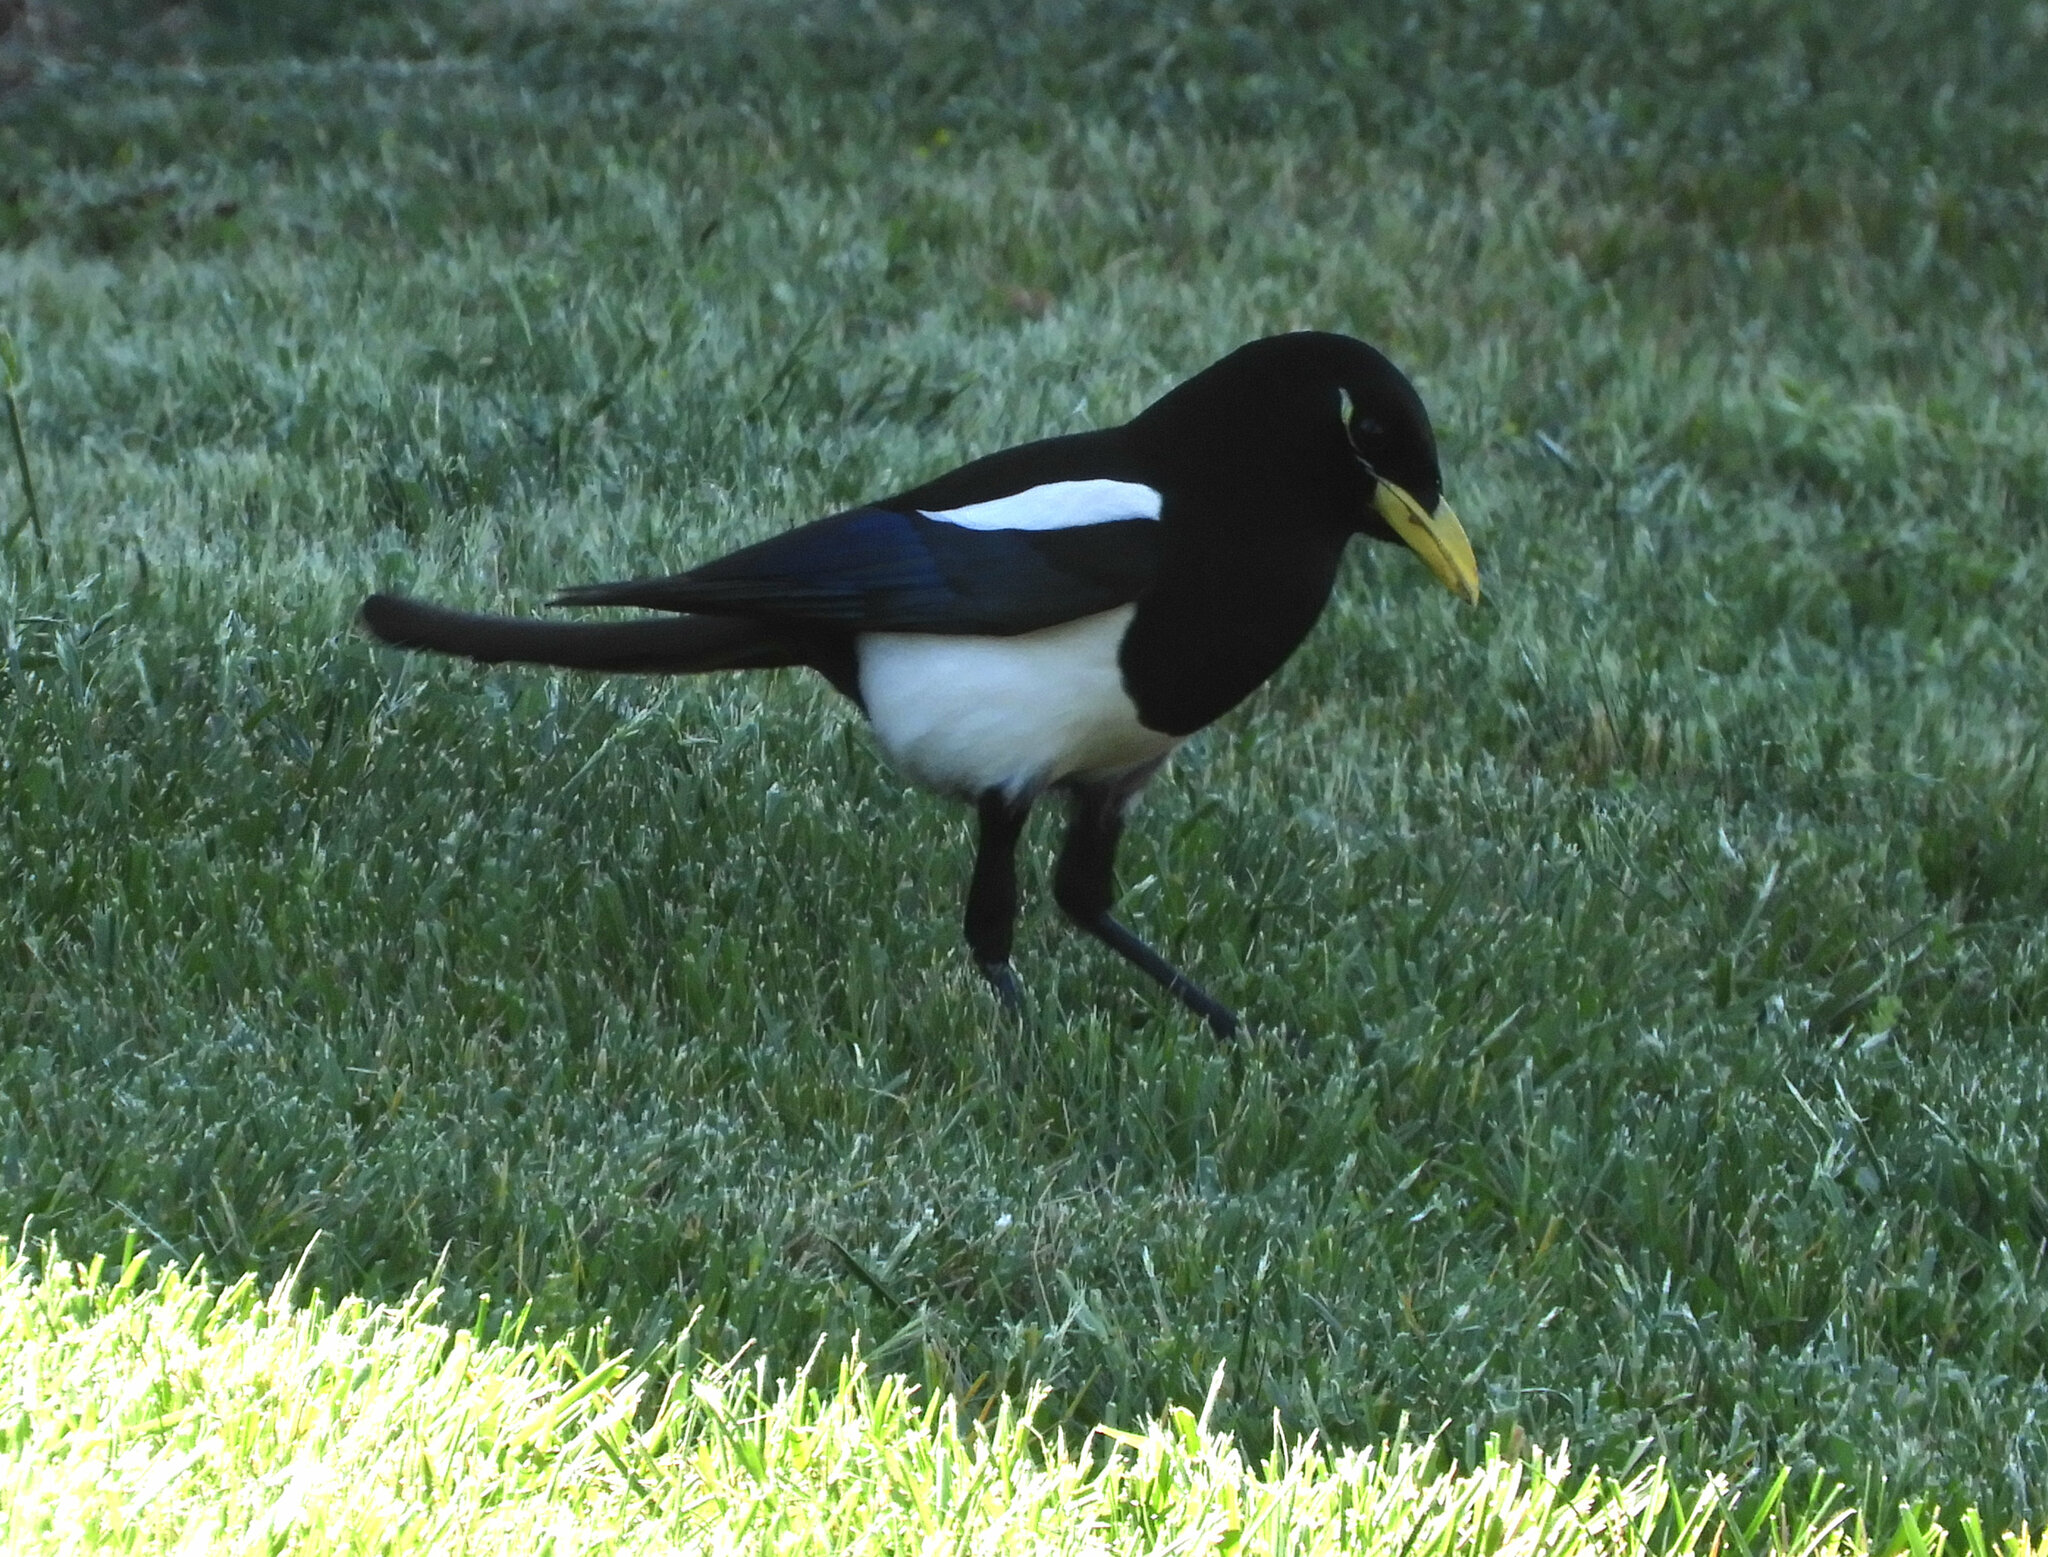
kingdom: Animalia
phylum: Chordata
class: Aves
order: Passeriformes
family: Corvidae
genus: Pica
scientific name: Pica nuttalli
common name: Yellow-billed magpie
